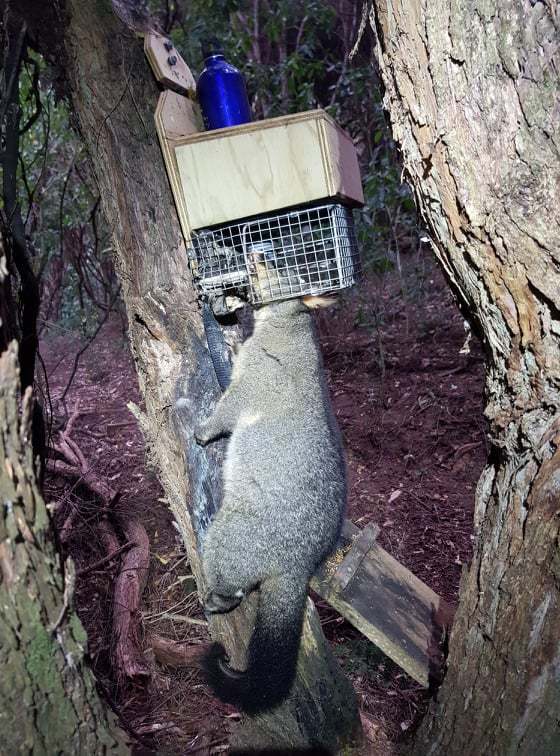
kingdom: Animalia
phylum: Chordata
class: Mammalia
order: Diprotodontia
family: Phalangeridae
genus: Trichosurus
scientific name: Trichosurus vulpecula
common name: Common brushtail
